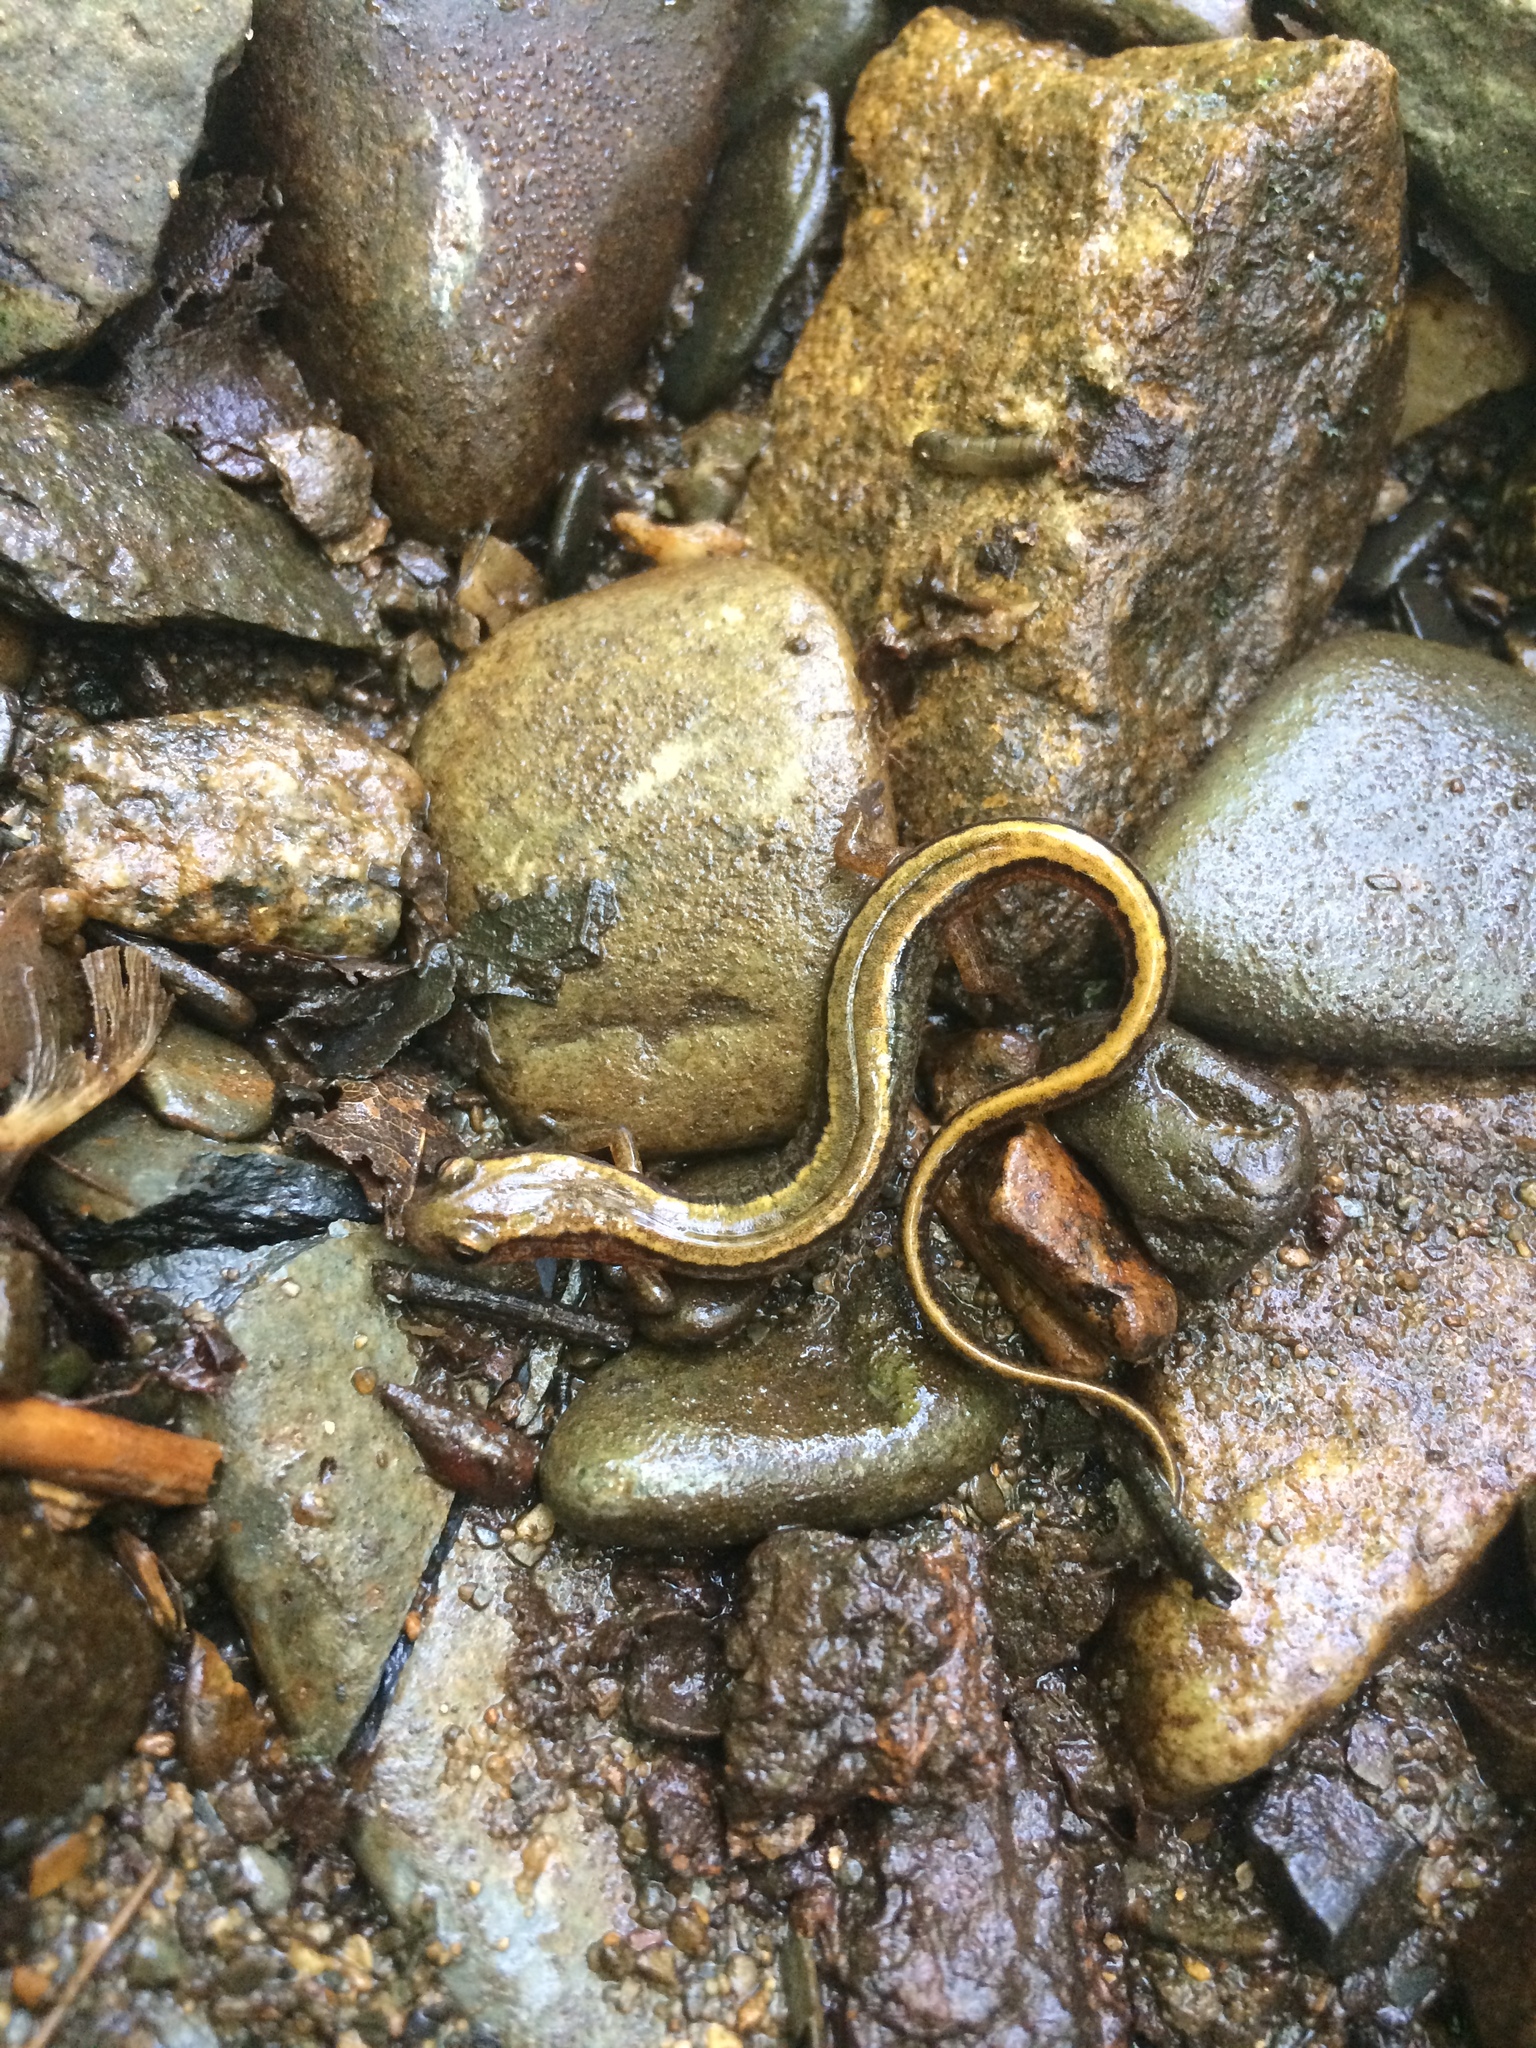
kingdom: Animalia
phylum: Chordata
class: Amphibia
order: Caudata
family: Plethodontidae
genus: Eurycea
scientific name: Eurycea bislineata
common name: Northern two-lined salamander
